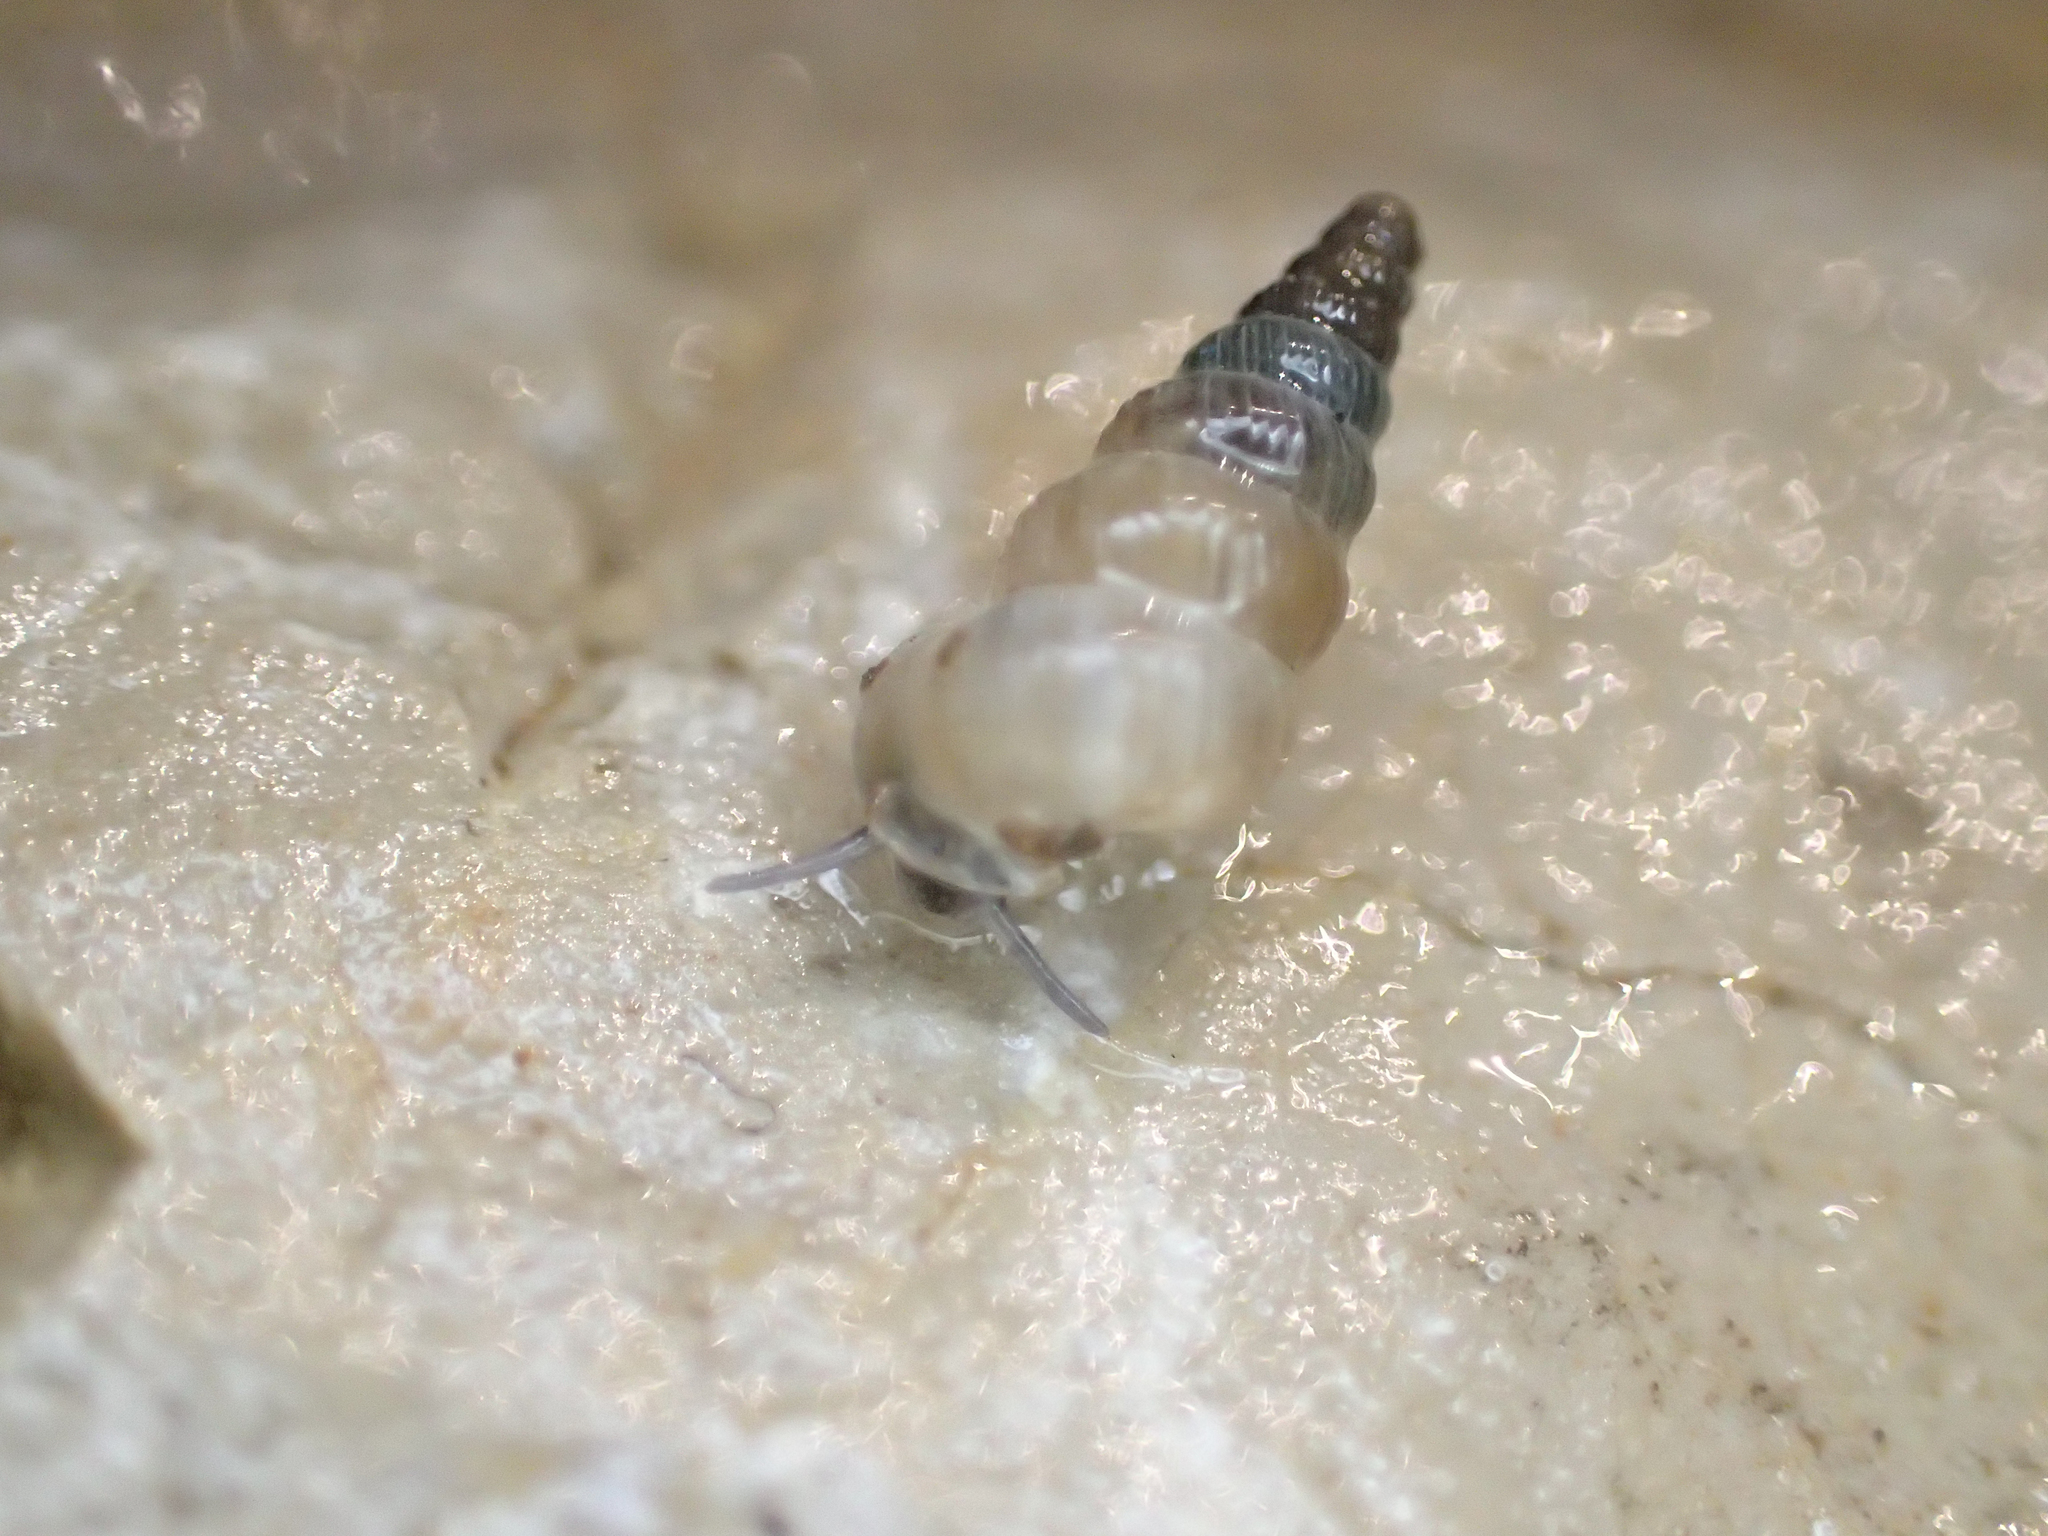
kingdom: Animalia
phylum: Mollusca
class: Gastropoda
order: Architaenioglossa
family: Cochlostomatidae
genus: Cochlostoma
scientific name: Cochlostoma patulum
